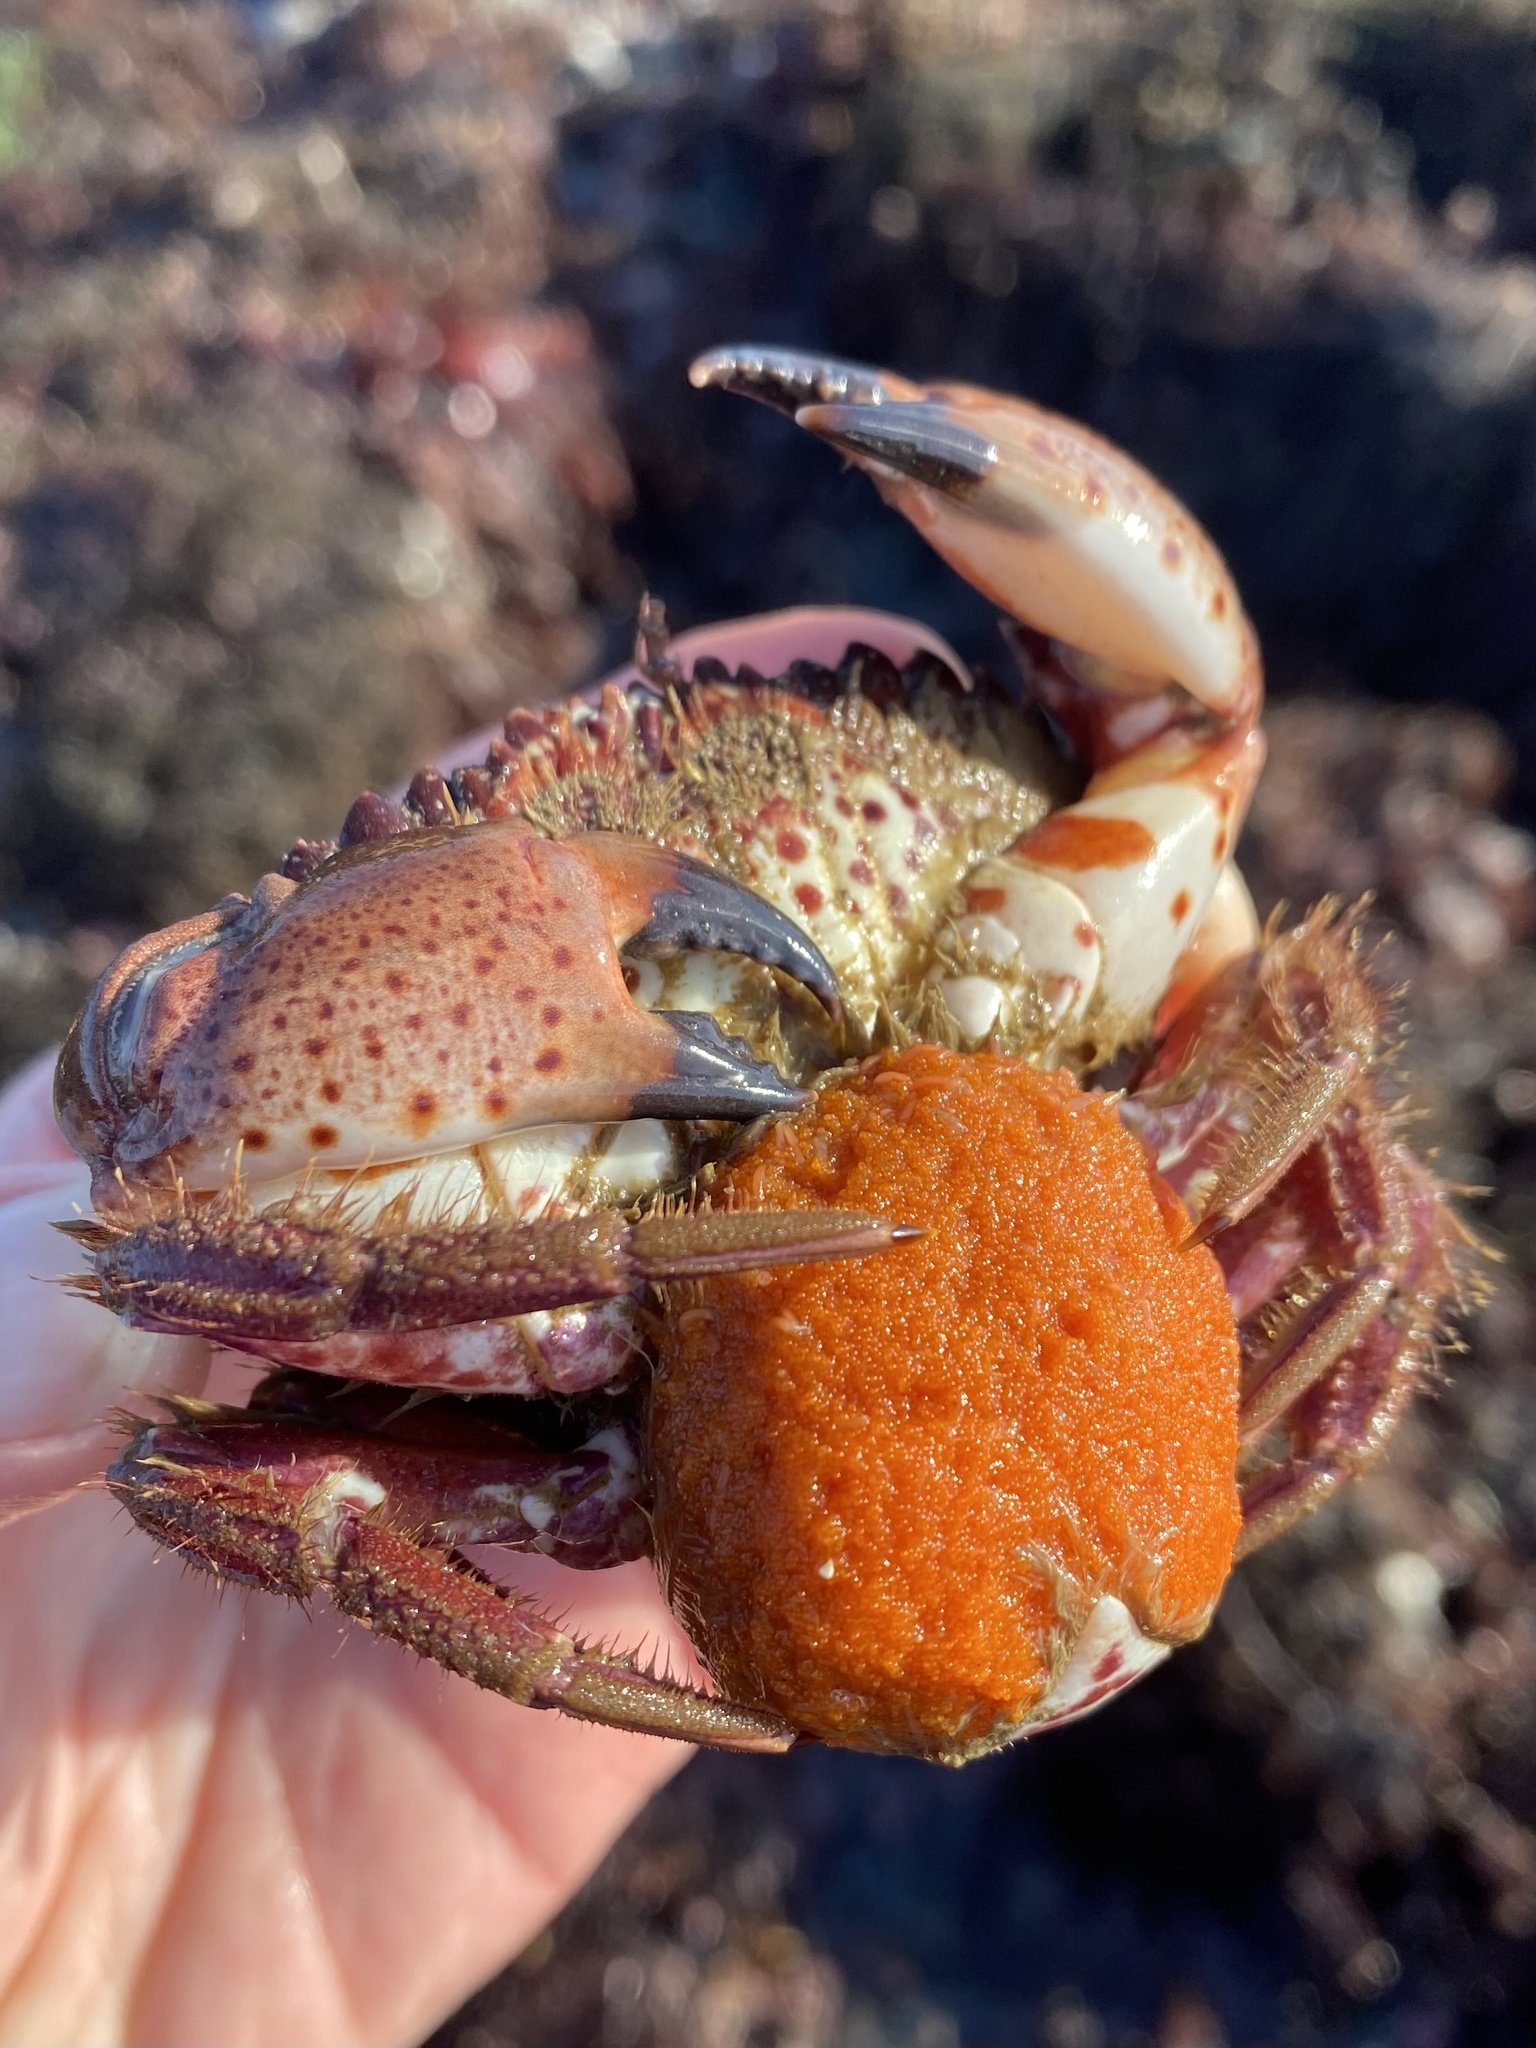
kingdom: Animalia
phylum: Arthropoda
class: Malacostraca
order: Decapoda
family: Cancridae
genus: Romaleon
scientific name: Romaleon antennarium
